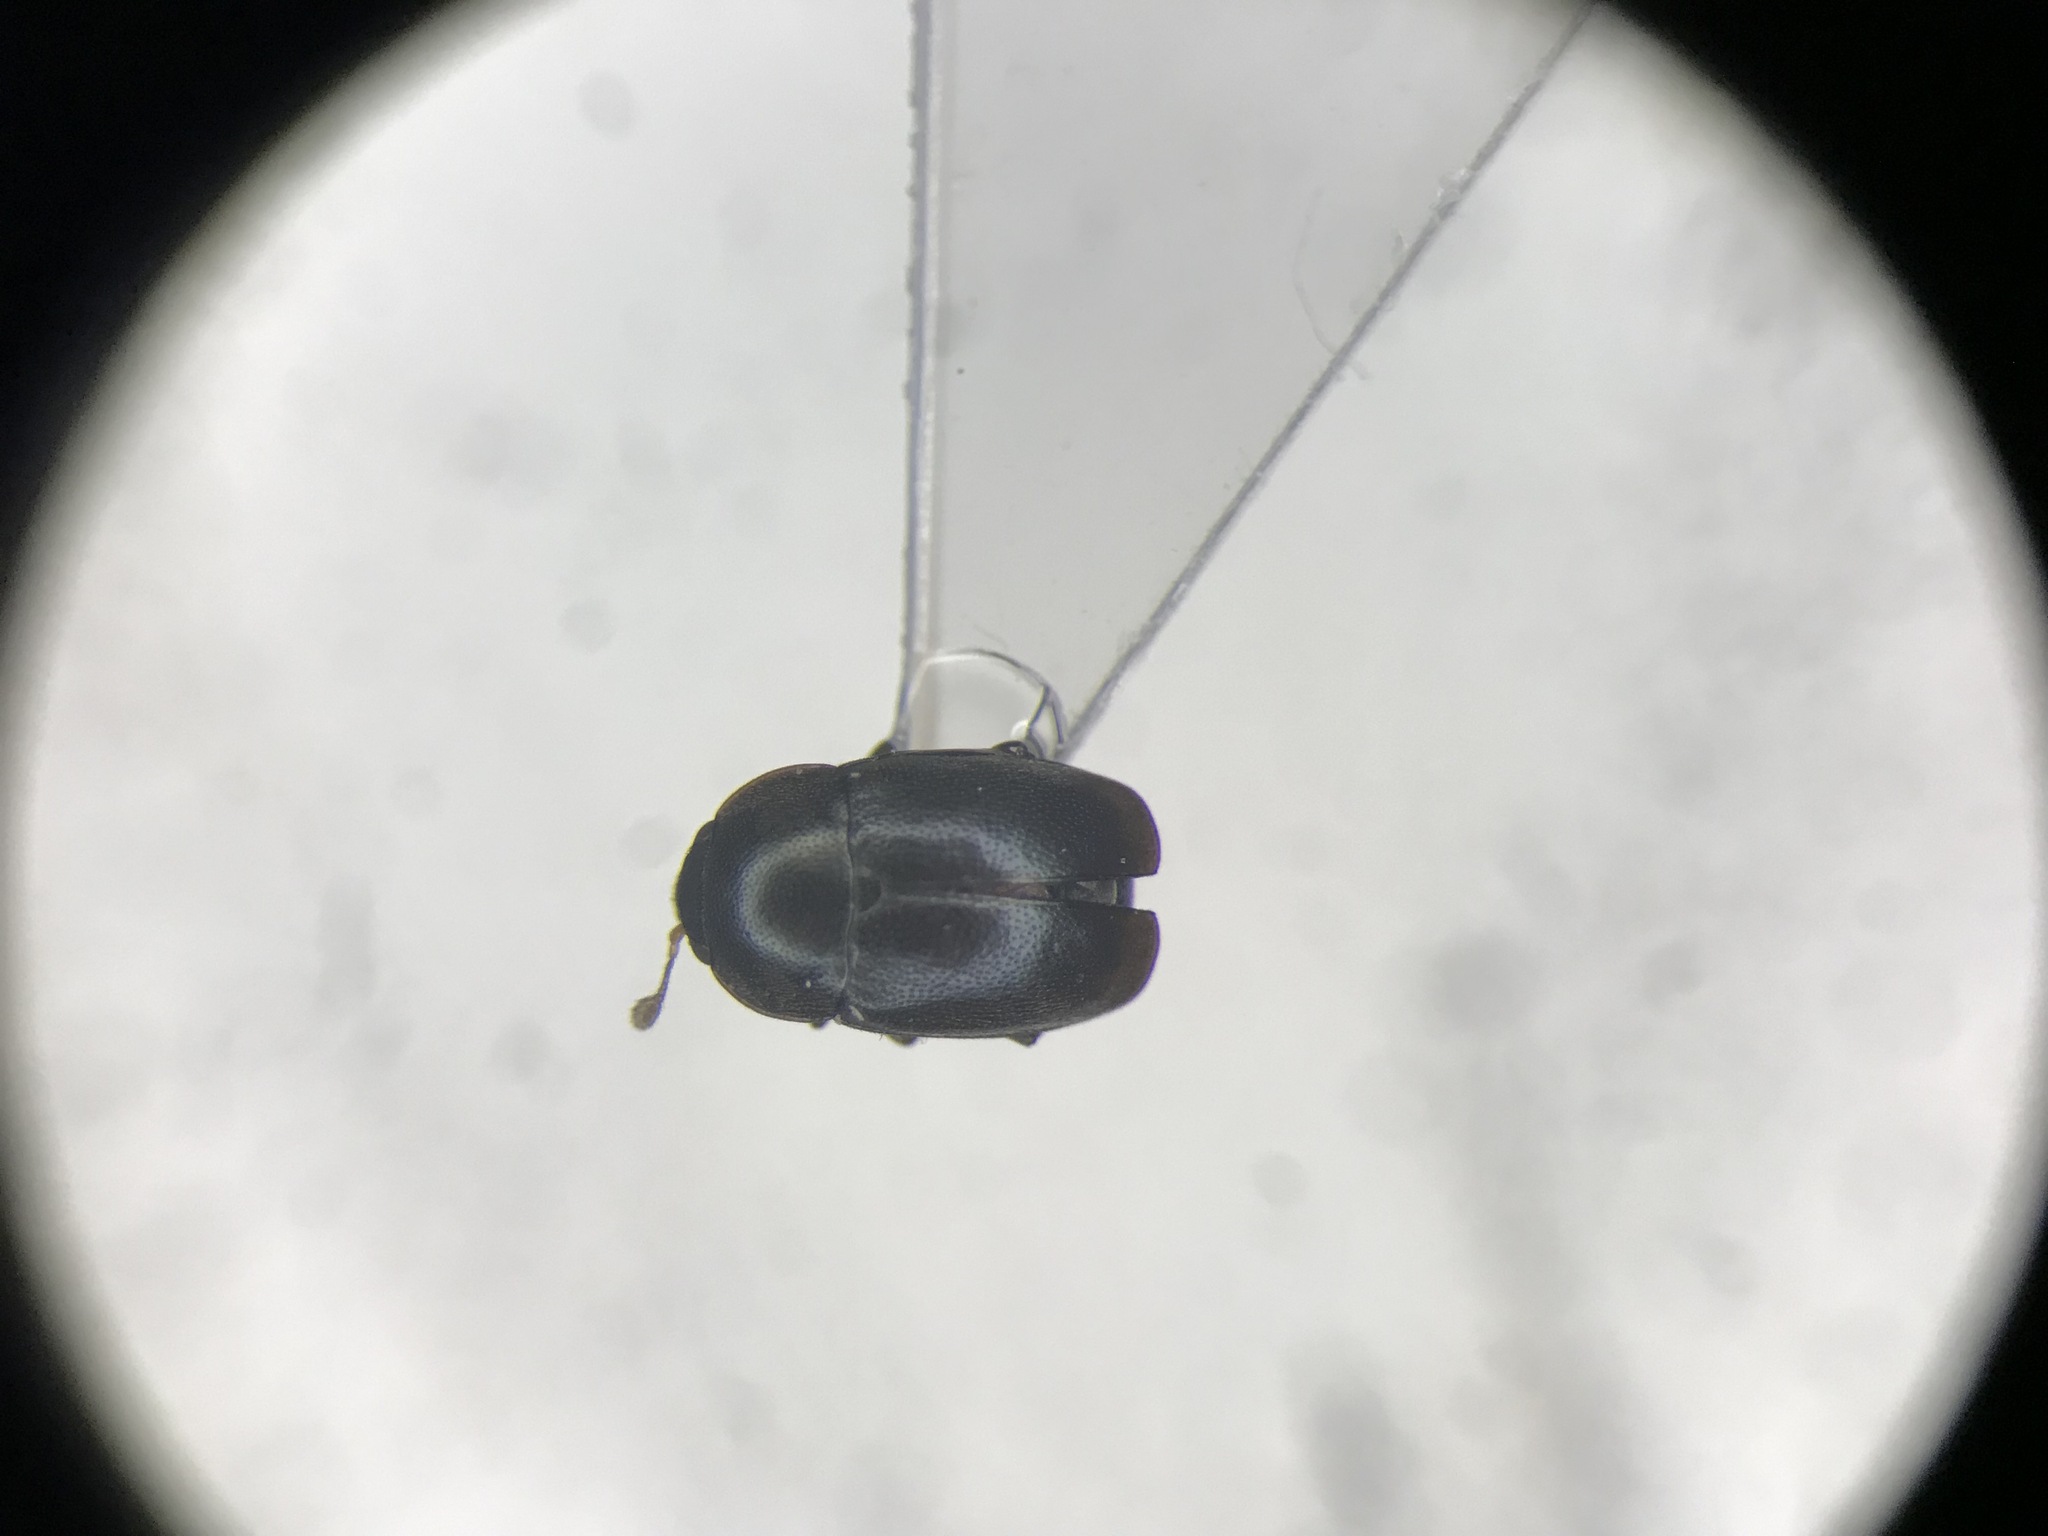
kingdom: Animalia
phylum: Arthropoda
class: Insecta
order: Coleoptera
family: Nitidulidae
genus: Brassicogethes
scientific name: Brassicogethes simplipes
